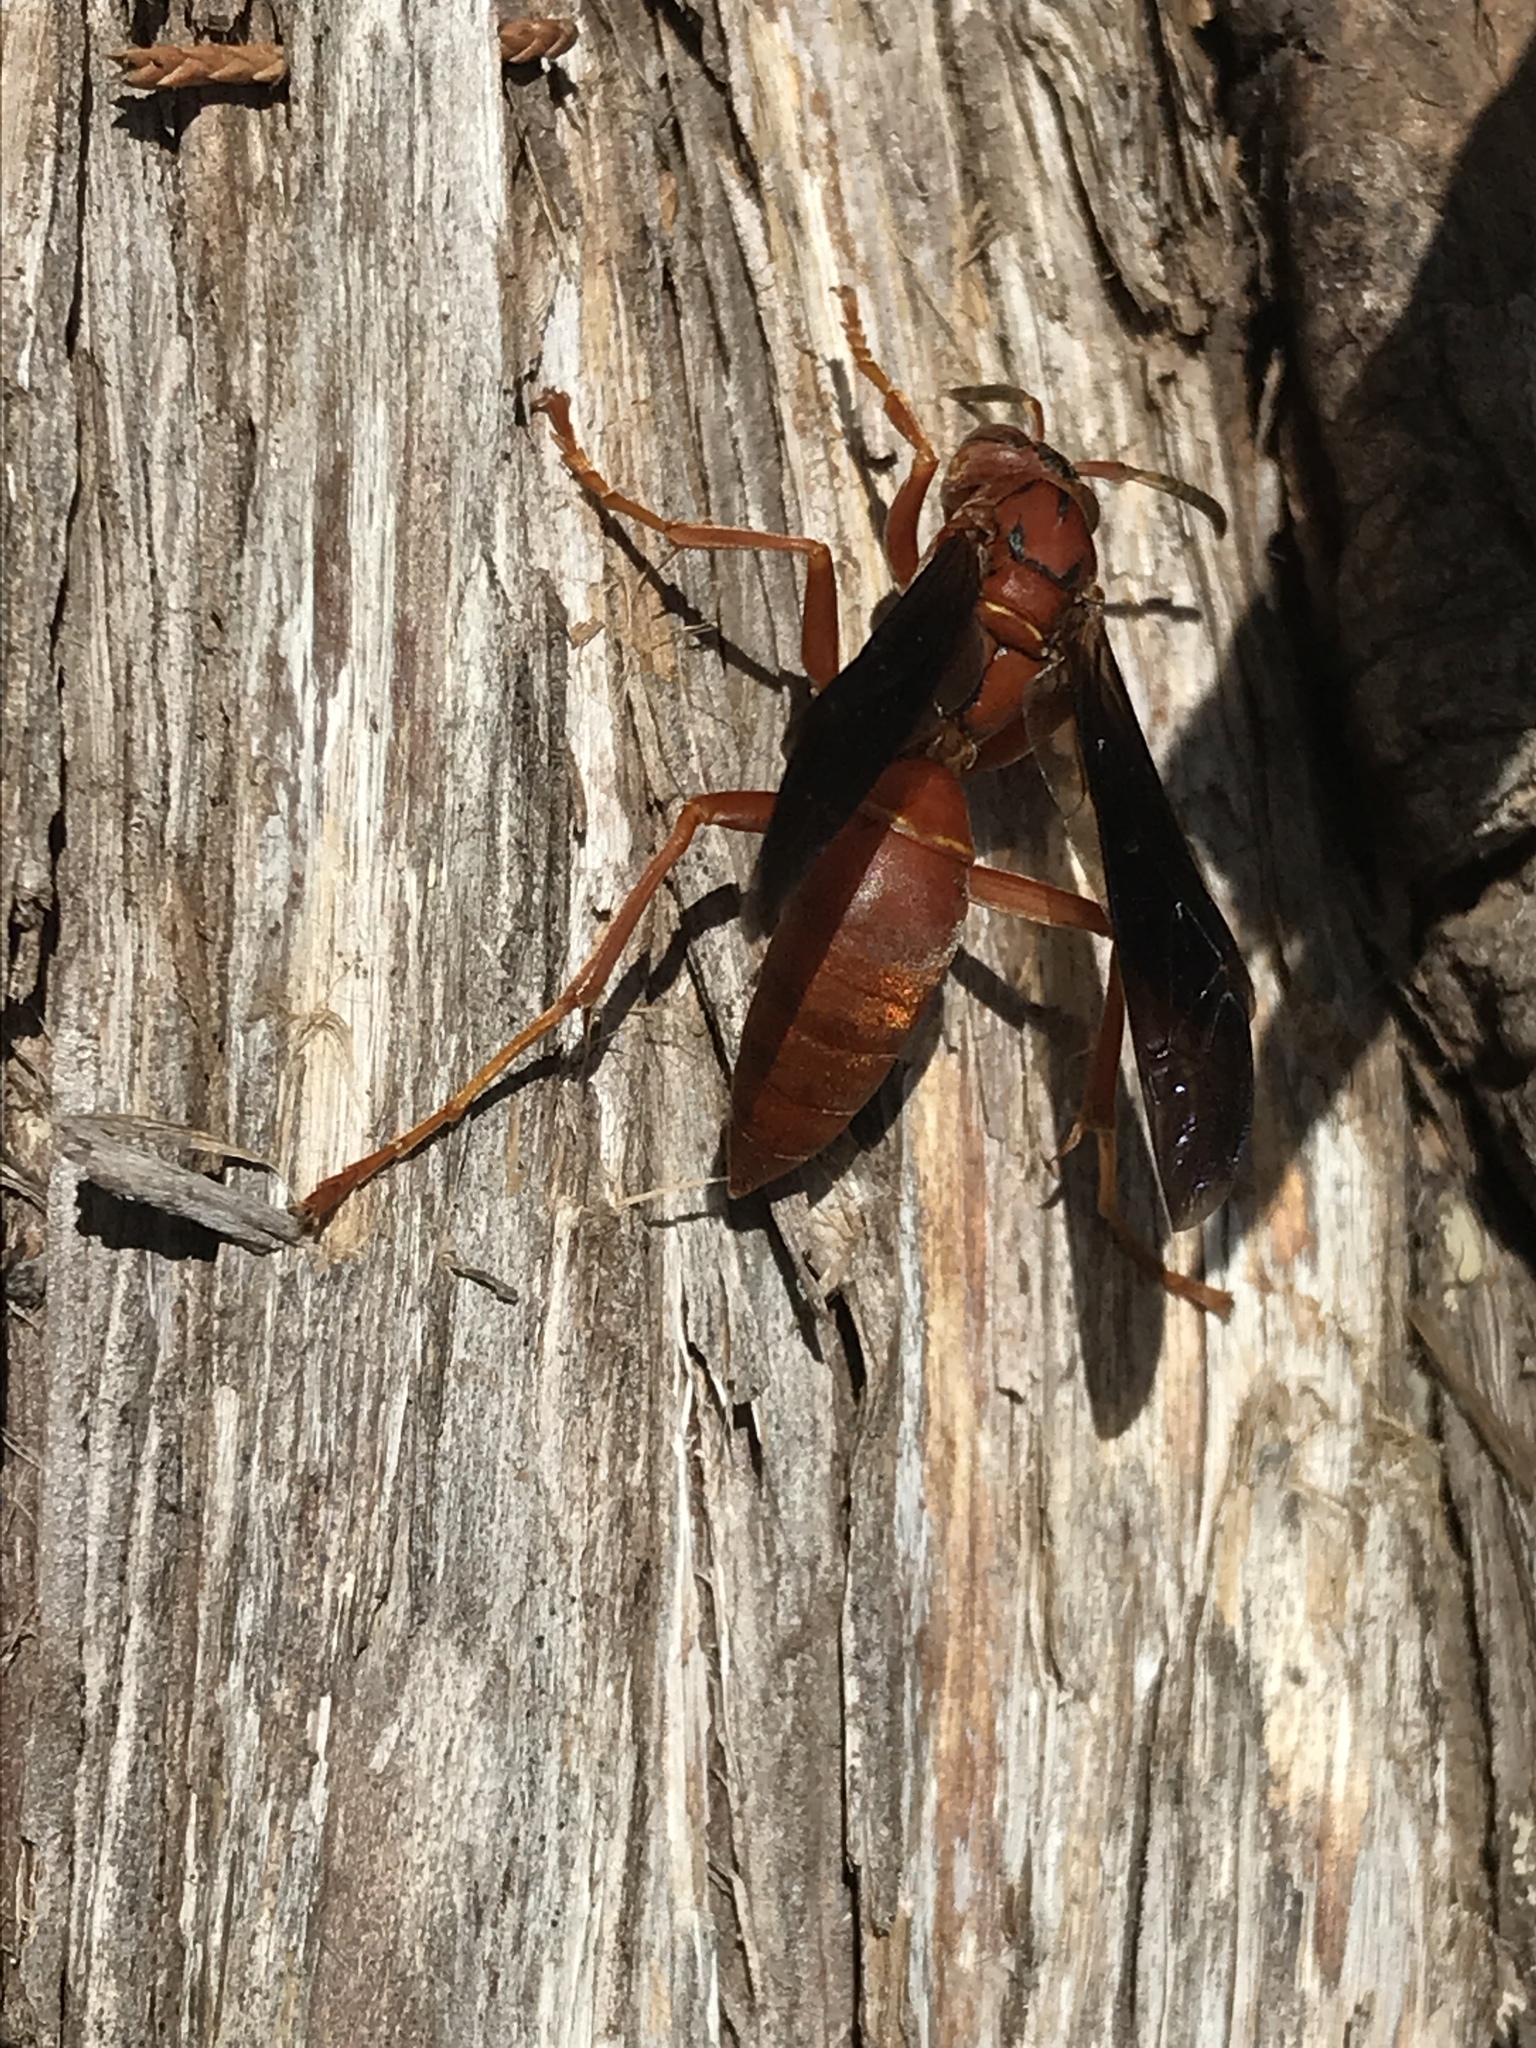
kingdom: Animalia
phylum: Arthropoda
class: Insecta
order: Hymenoptera
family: Vespidae
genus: Fuscopolistes
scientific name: Fuscopolistes
